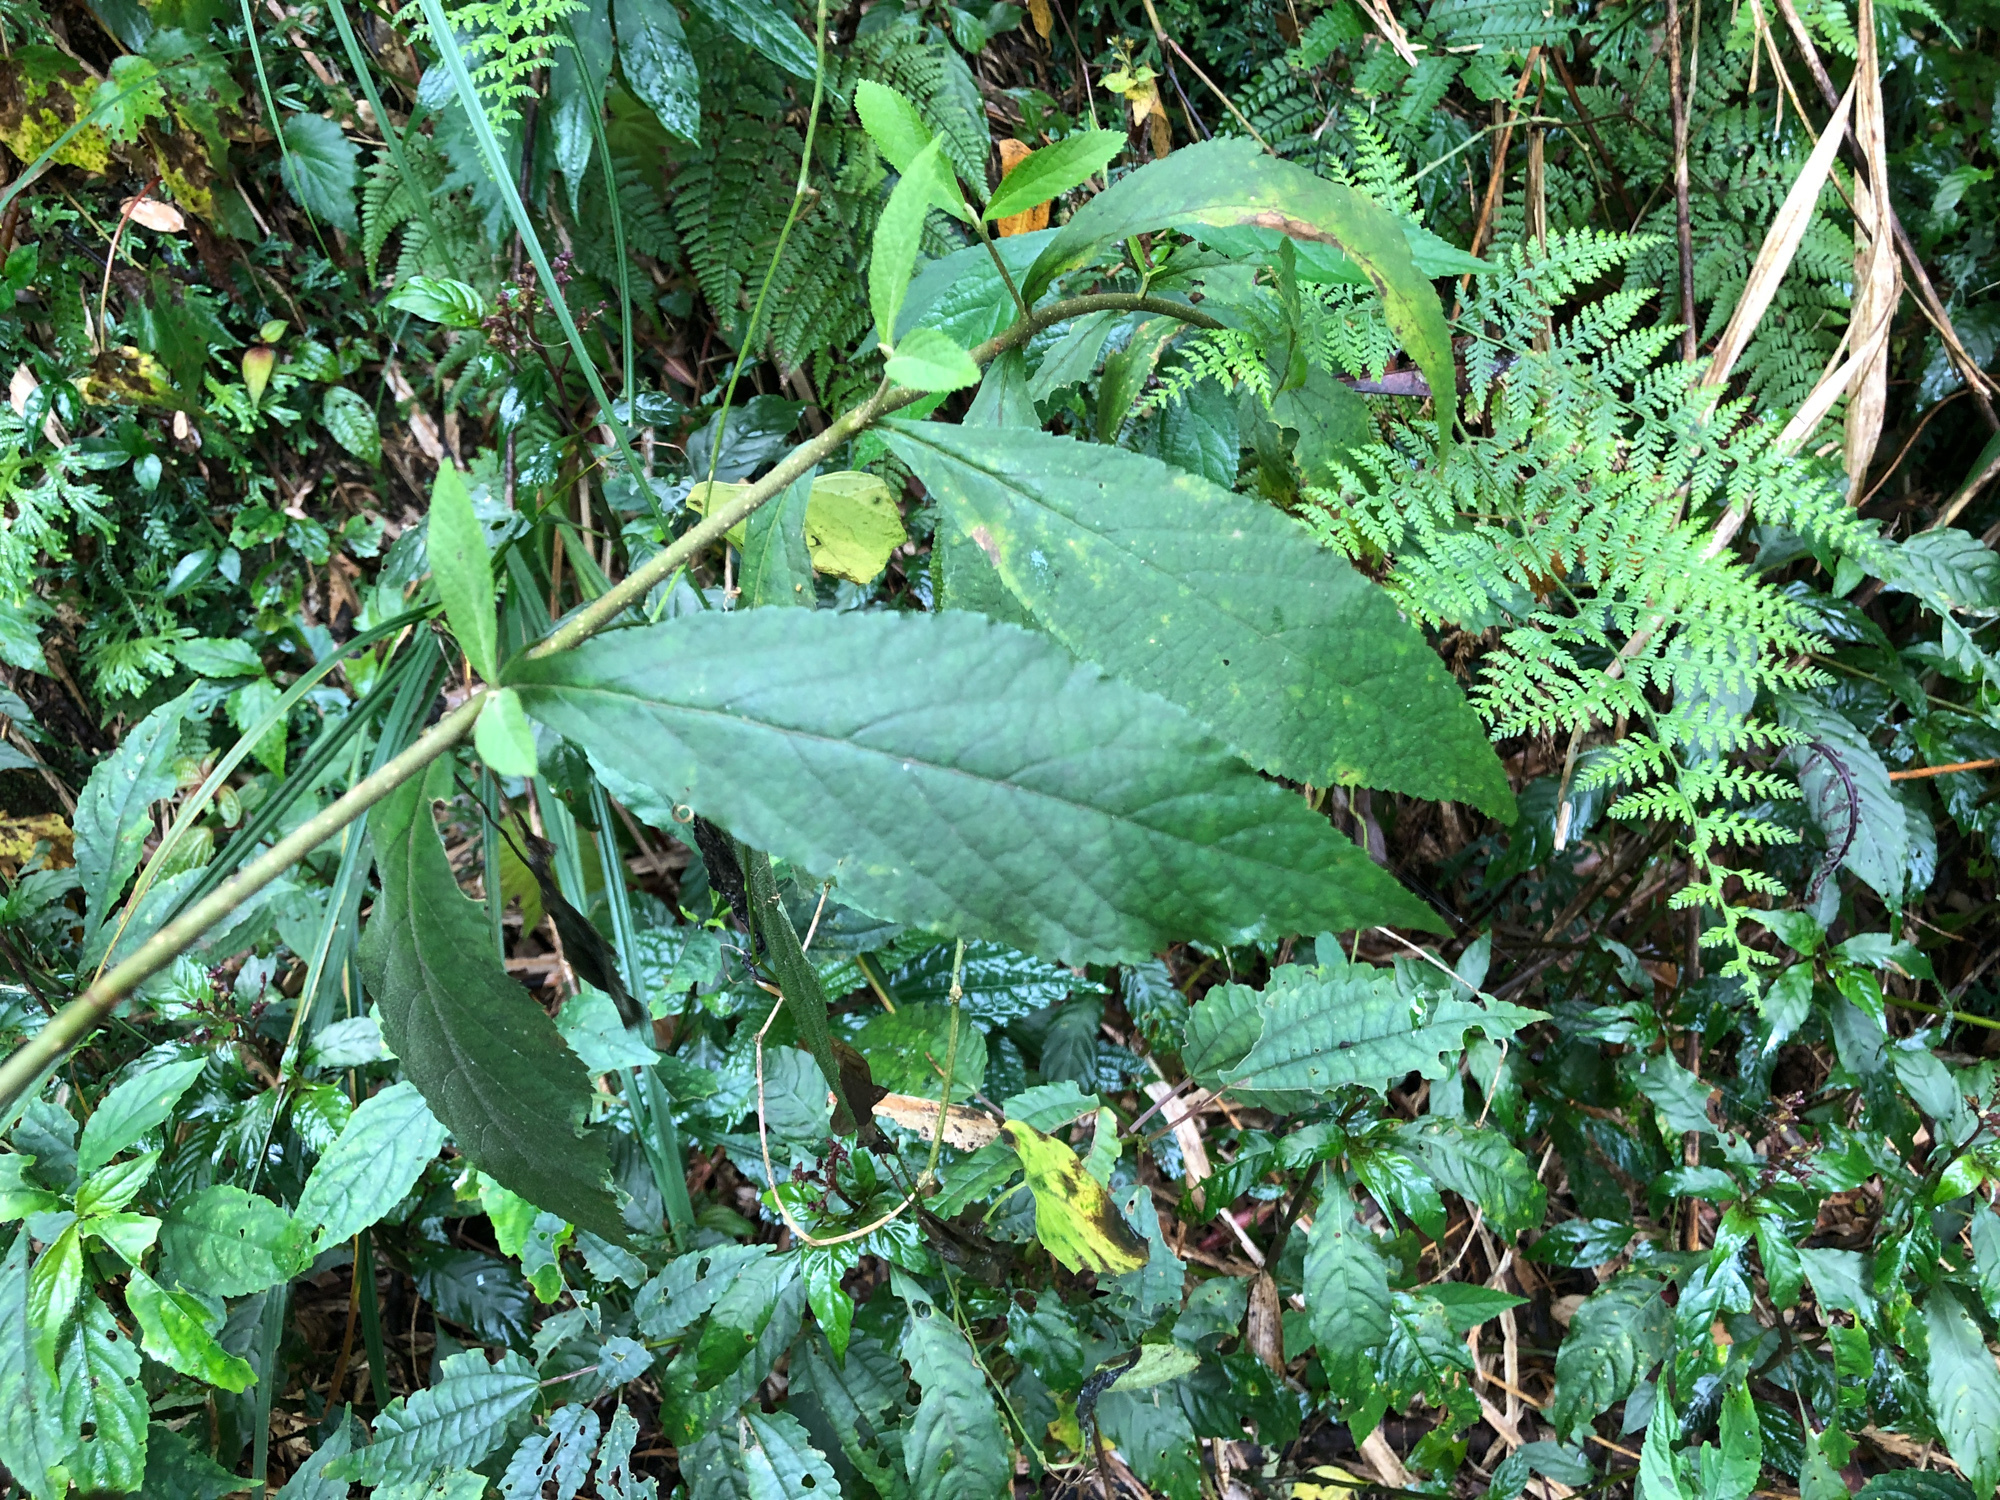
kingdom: Plantae
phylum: Tracheophyta
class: Magnoliopsida
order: Lamiales
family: Lamiaceae
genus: Callicarpa
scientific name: Callicarpa pedunculata
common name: Velvetleaf
